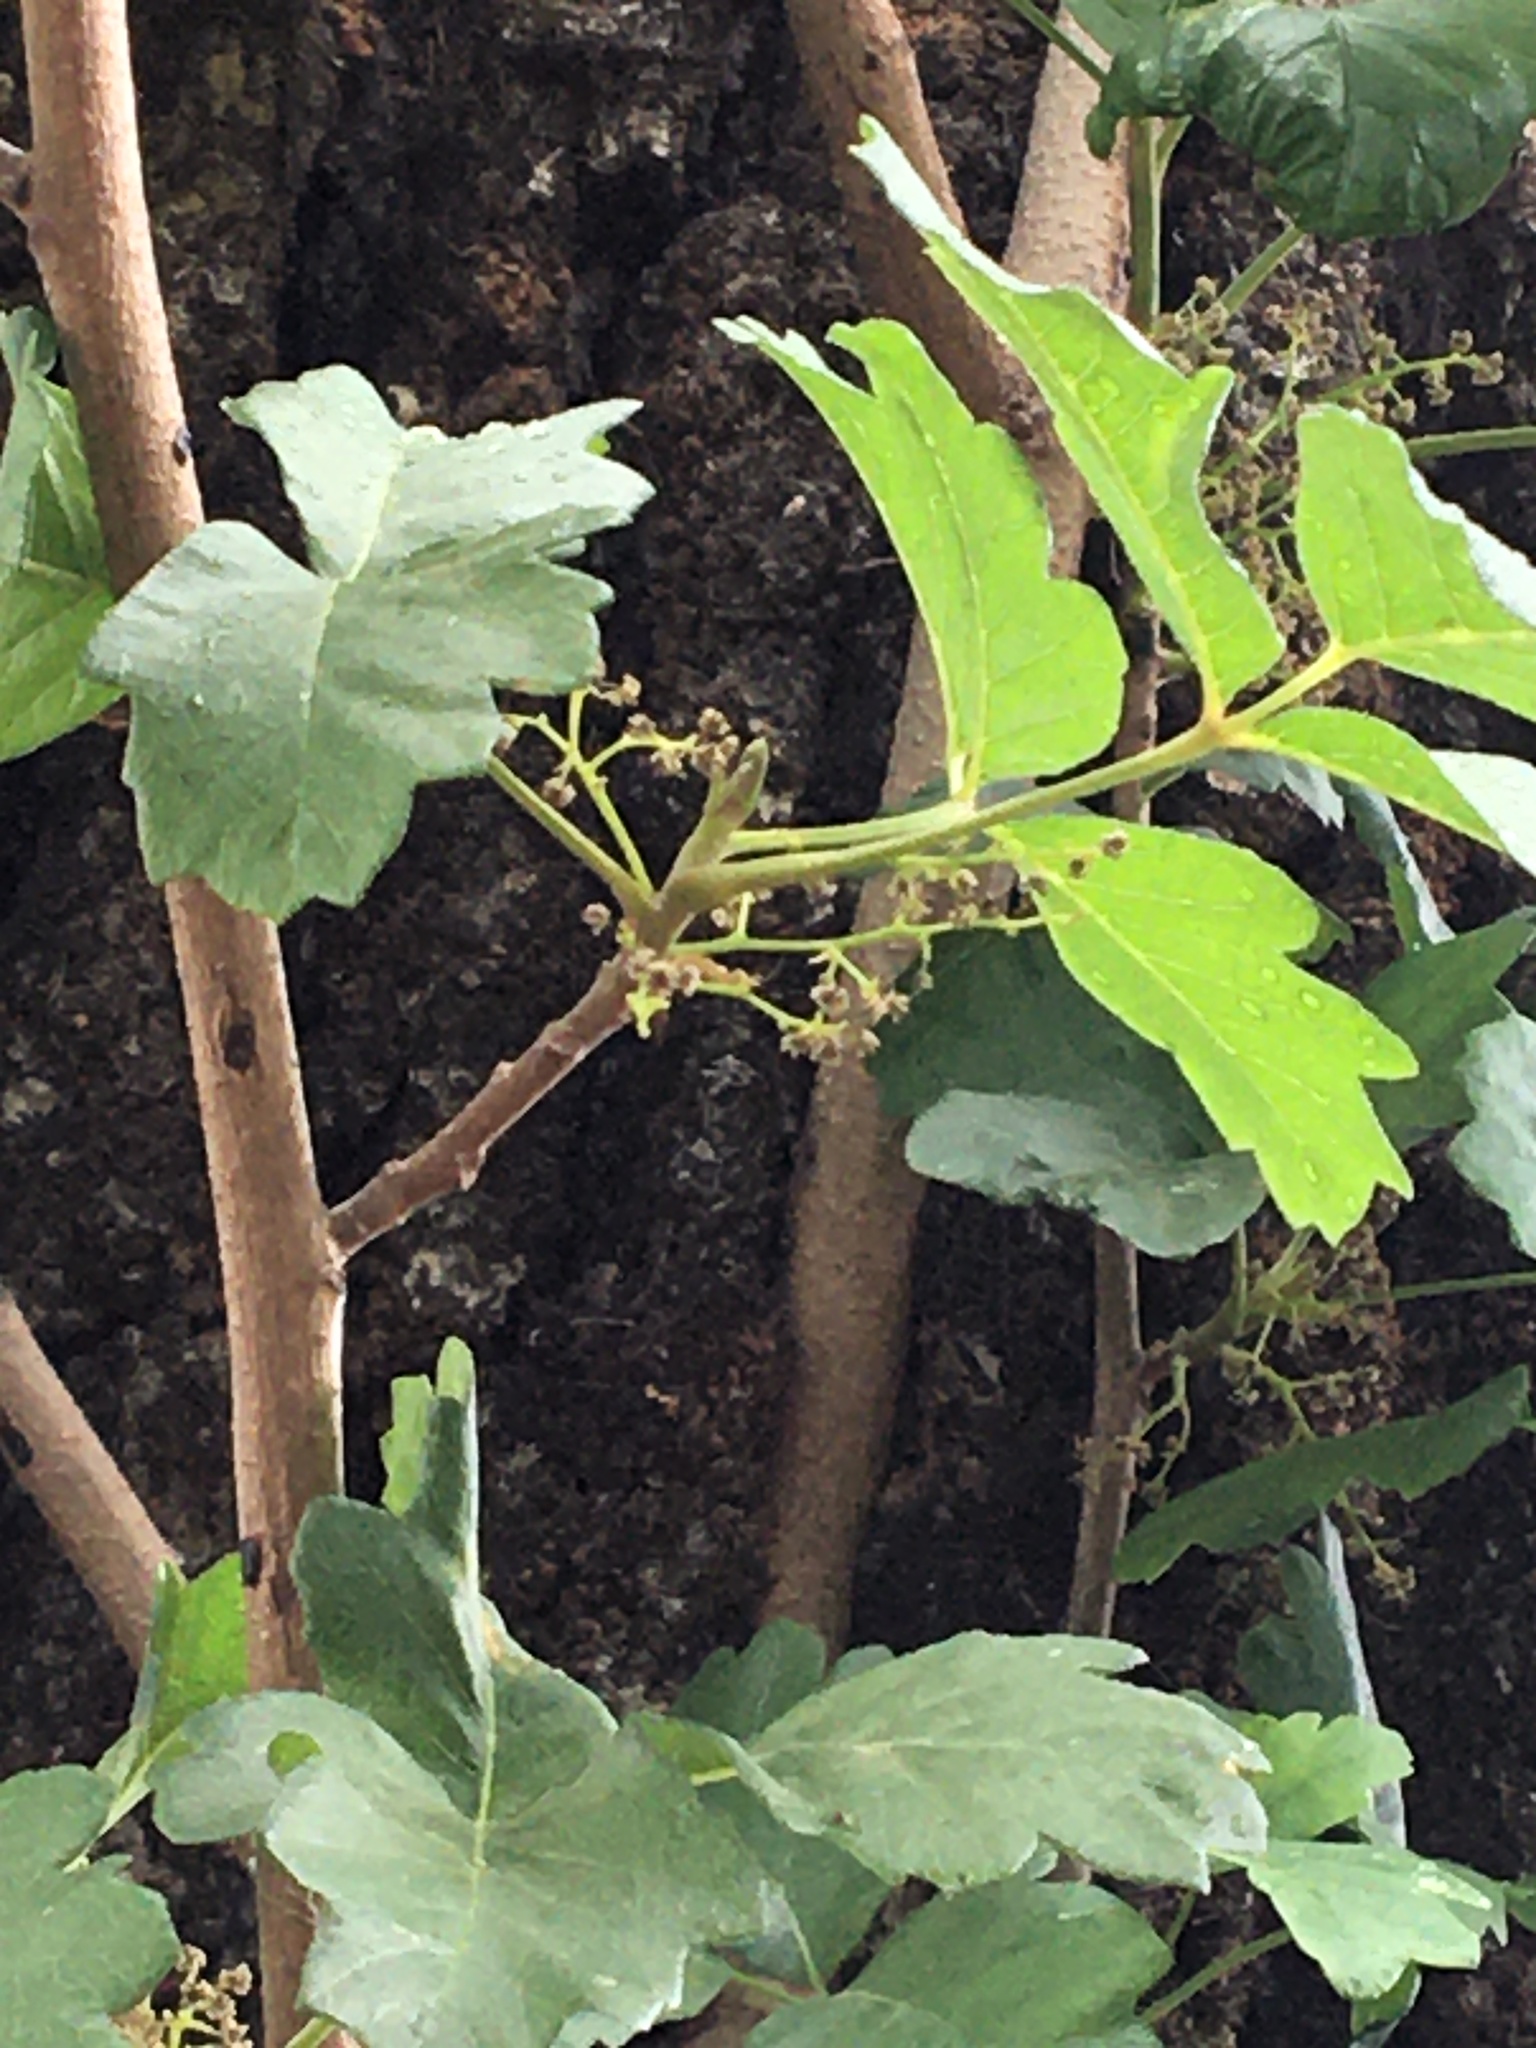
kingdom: Plantae
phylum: Tracheophyta
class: Magnoliopsida
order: Sapindales
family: Anacardiaceae
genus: Toxicodendron
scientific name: Toxicodendron diversilobum
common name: Pacific poison-oak
